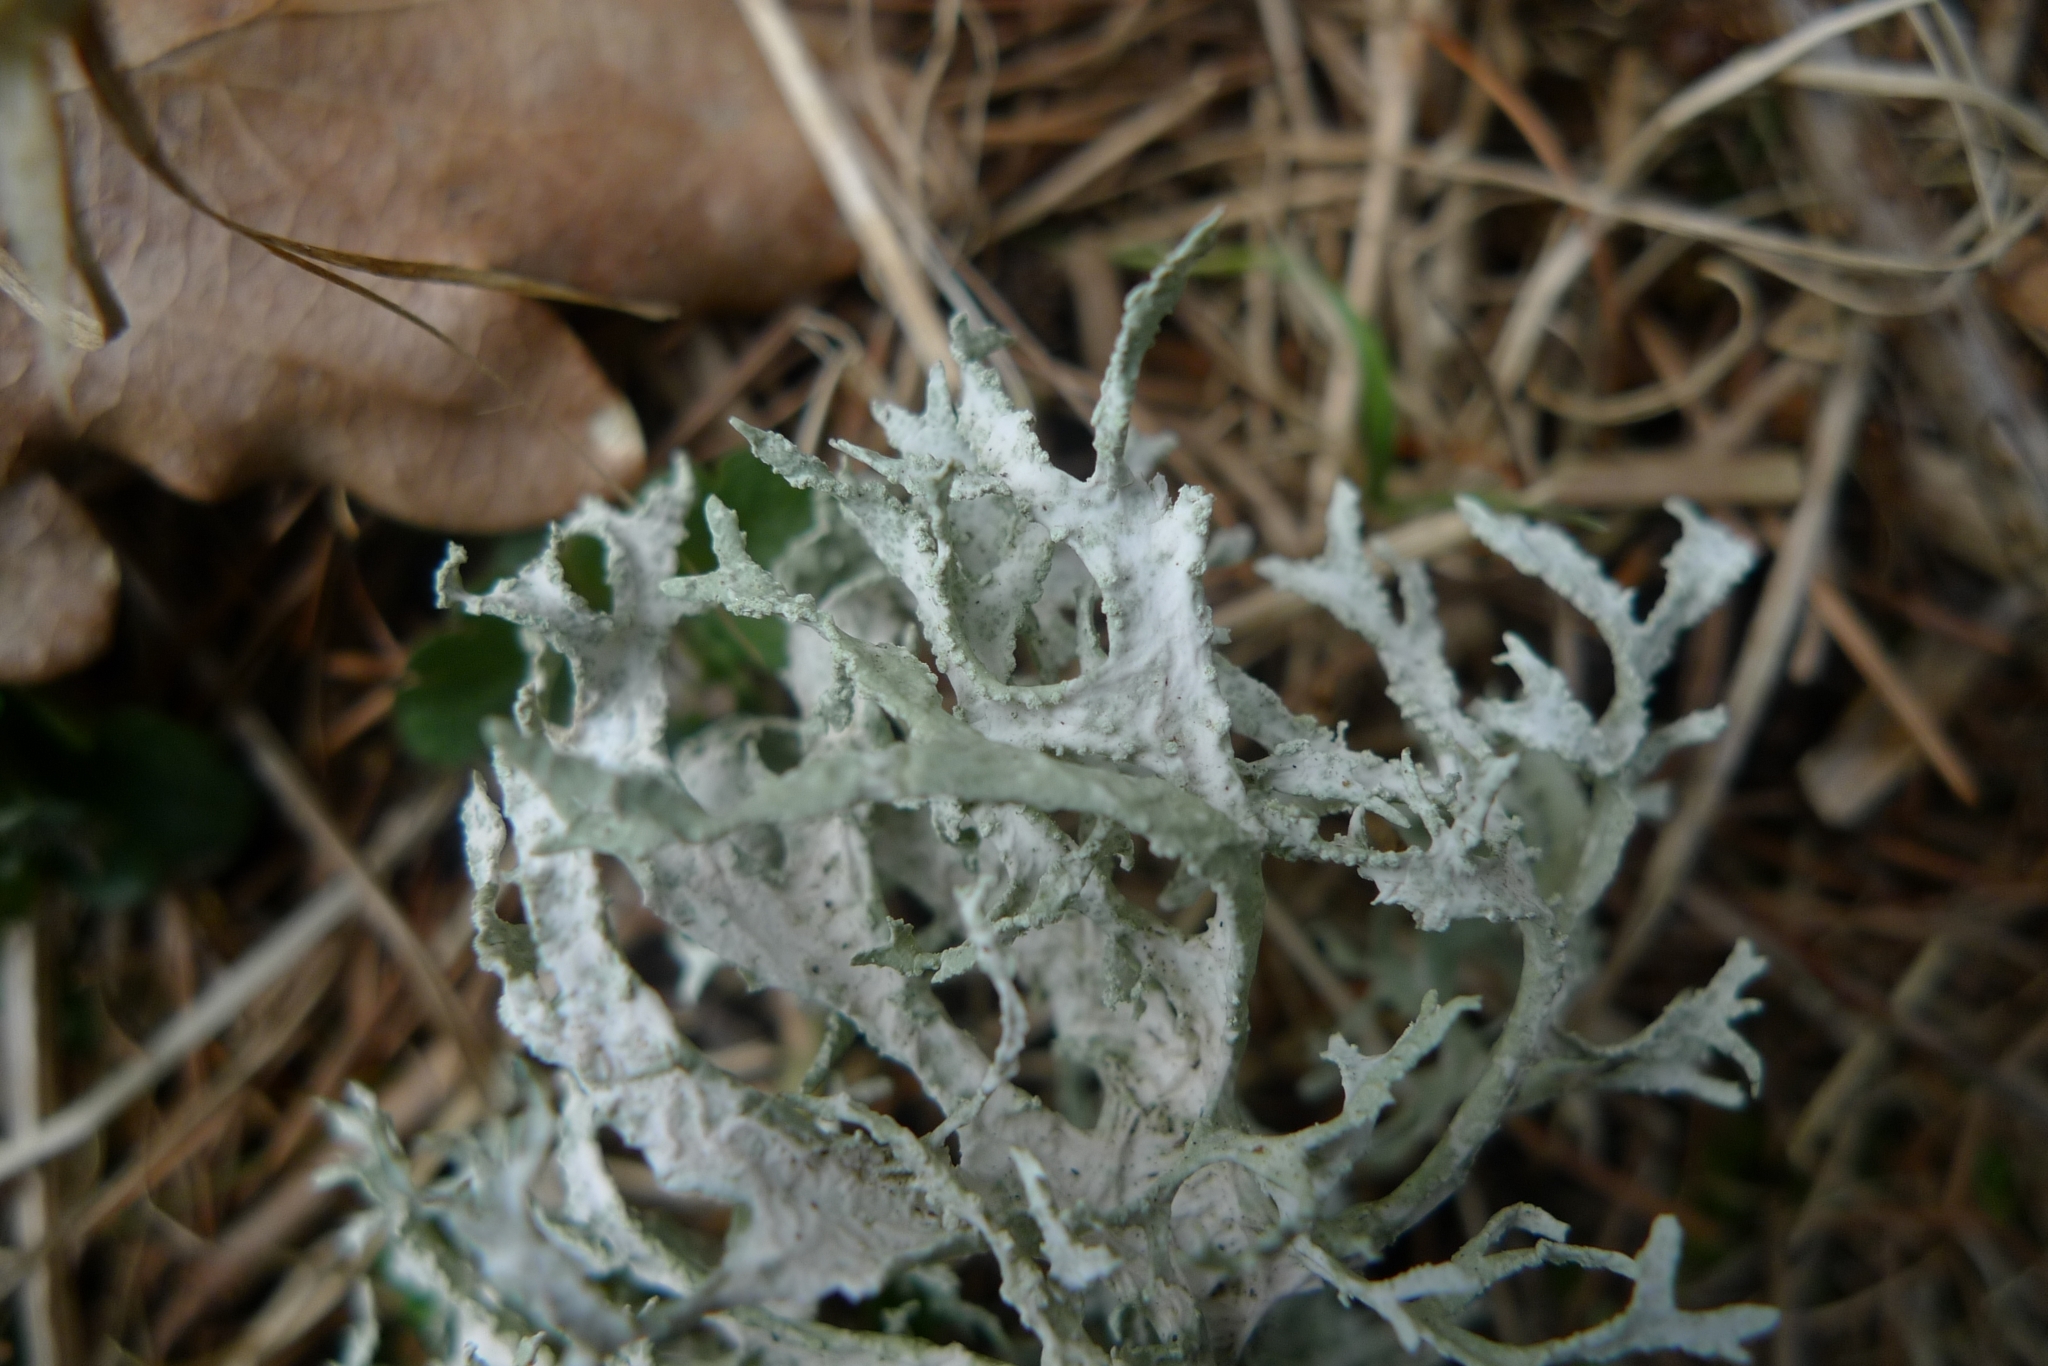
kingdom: Fungi
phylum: Ascomycota
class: Lecanoromycetes
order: Lecanorales
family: Parmeliaceae
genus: Evernia
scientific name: Evernia prunastri
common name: Oak moss
